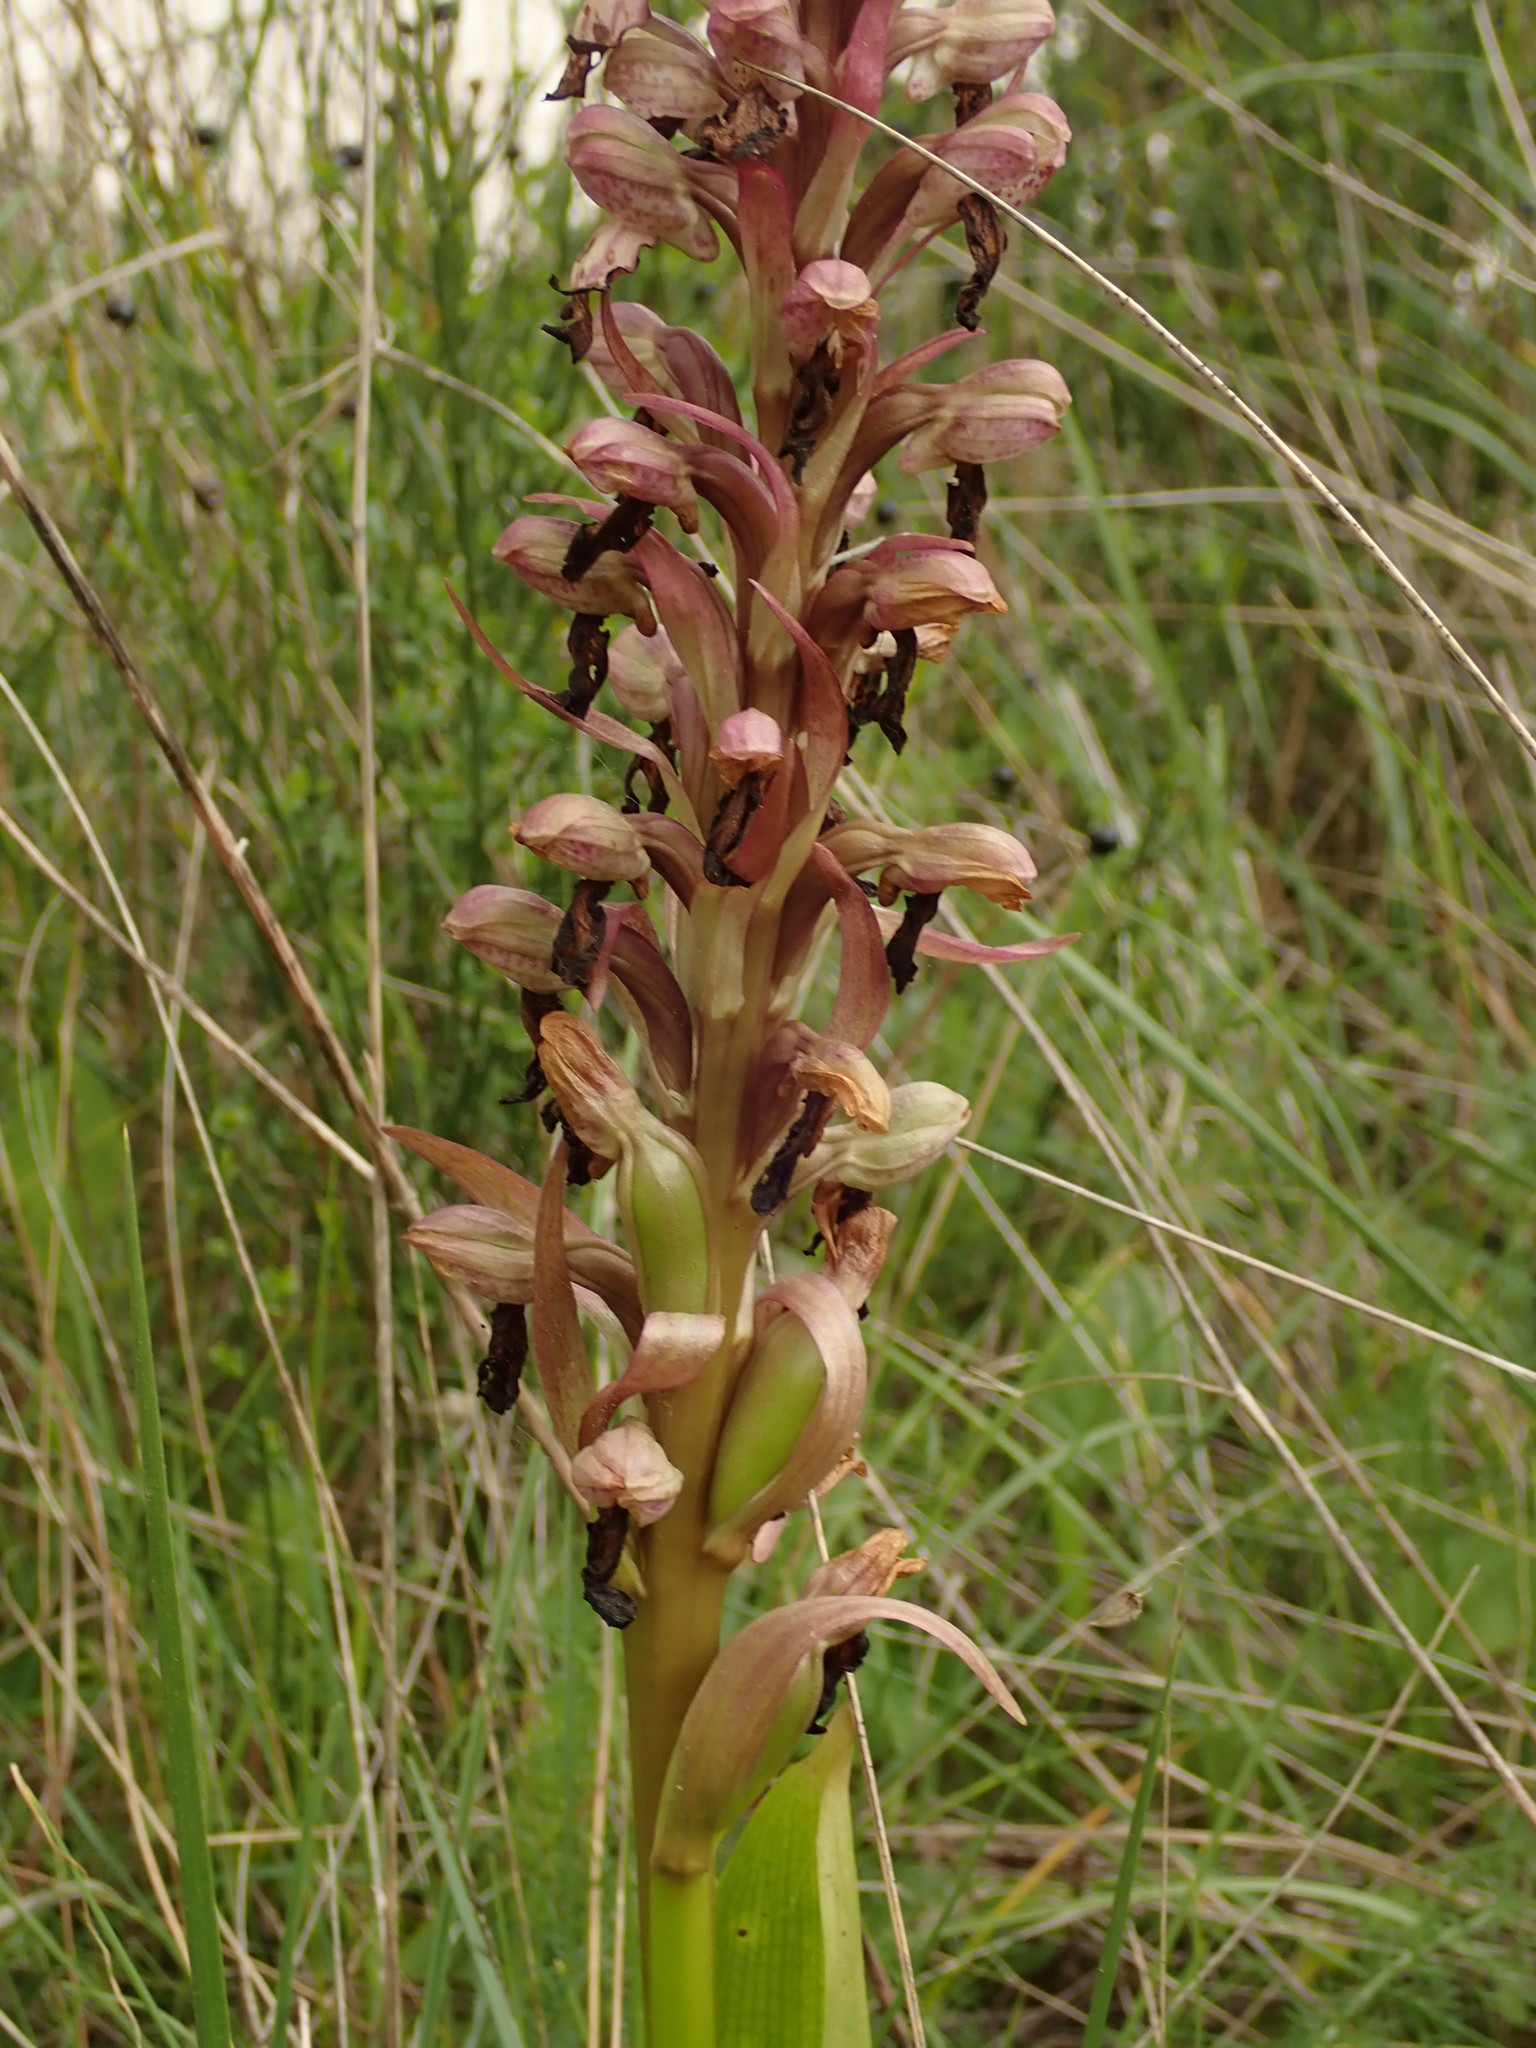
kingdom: Plantae
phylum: Tracheophyta
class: Liliopsida
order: Asparagales
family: Orchidaceae
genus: Himantoglossum
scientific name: Himantoglossum robertianum
